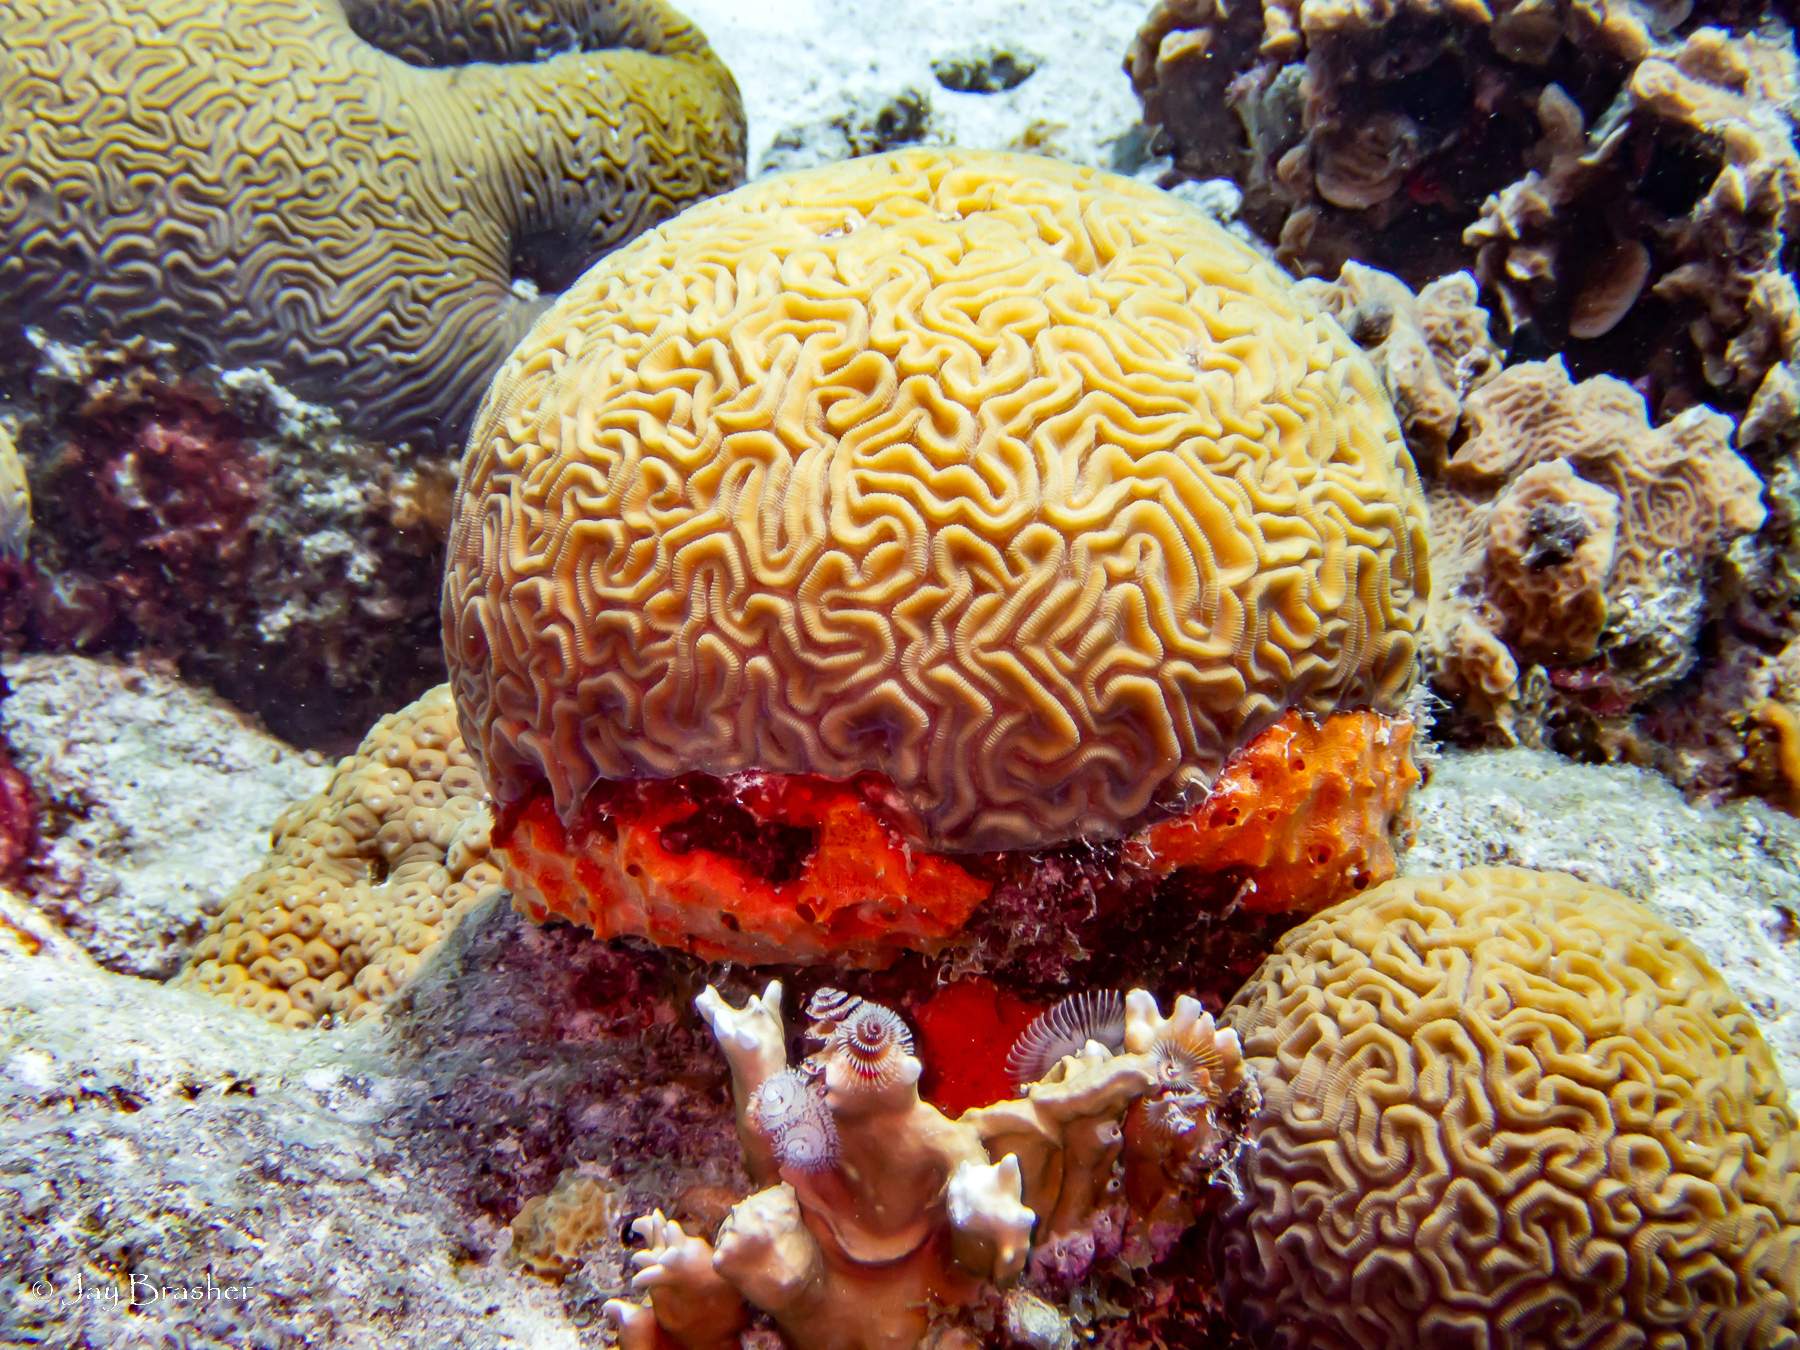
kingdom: Animalia
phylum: Porifera
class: Demospongiae
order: Scopalinida
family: Scopalinidae
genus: Scopalina
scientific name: Scopalina ruetzleri
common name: Orange lumpy encrusting sponge
